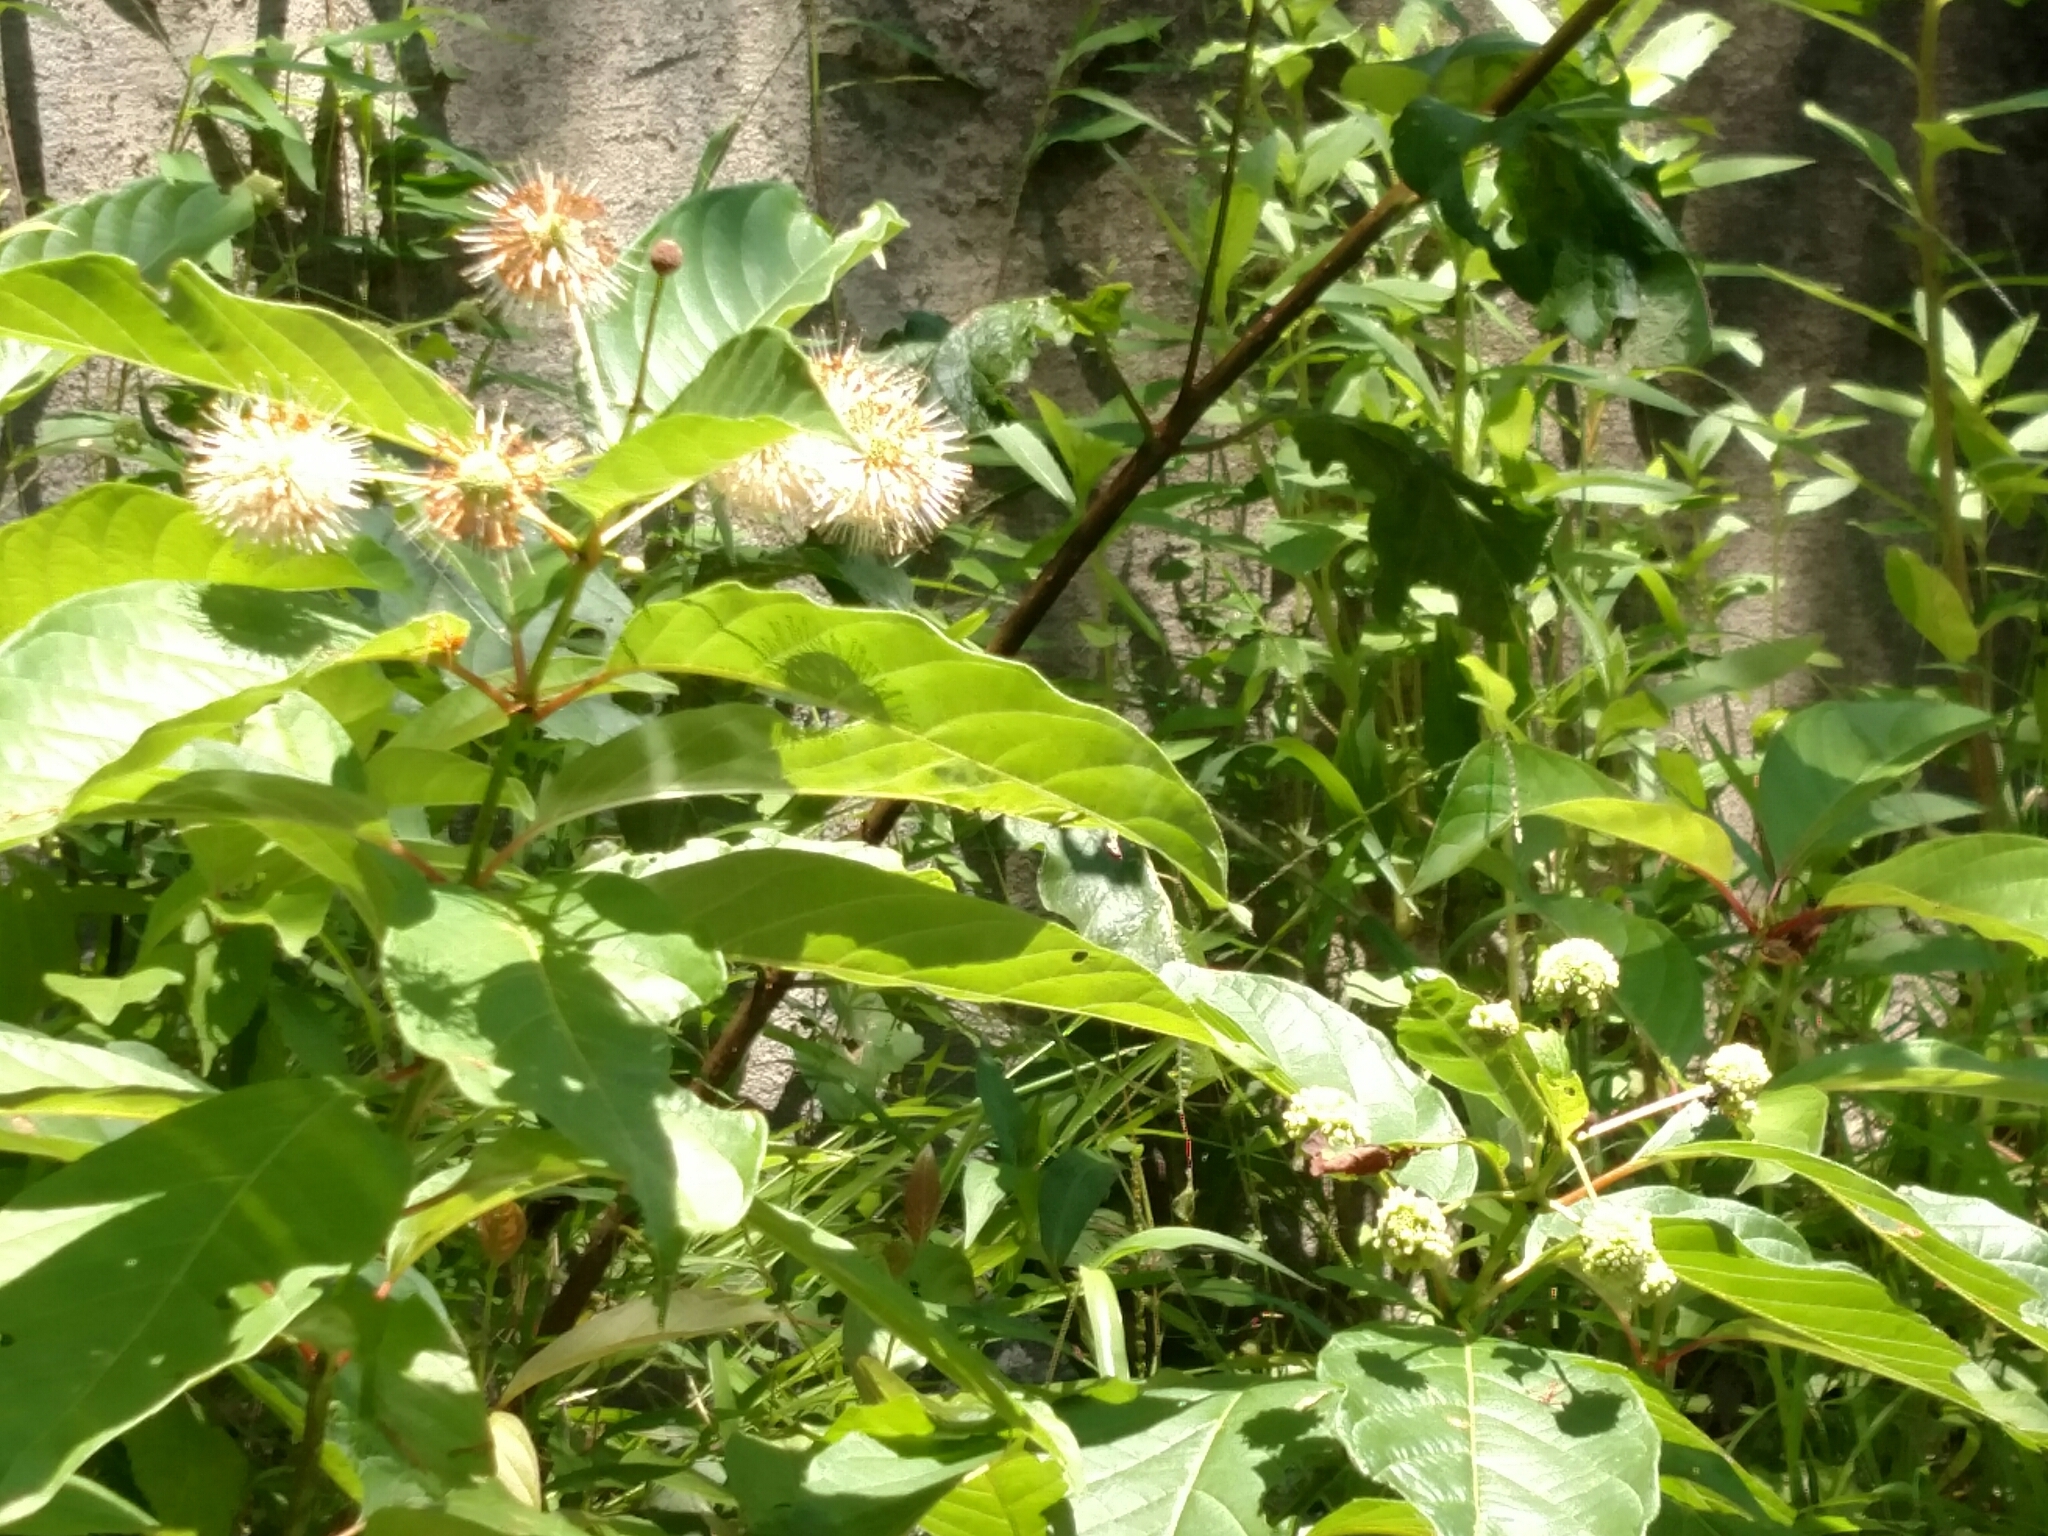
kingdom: Plantae
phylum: Tracheophyta
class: Magnoliopsida
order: Gentianales
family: Rubiaceae
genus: Cephalanthus
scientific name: Cephalanthus occidentalis
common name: Button-willow
